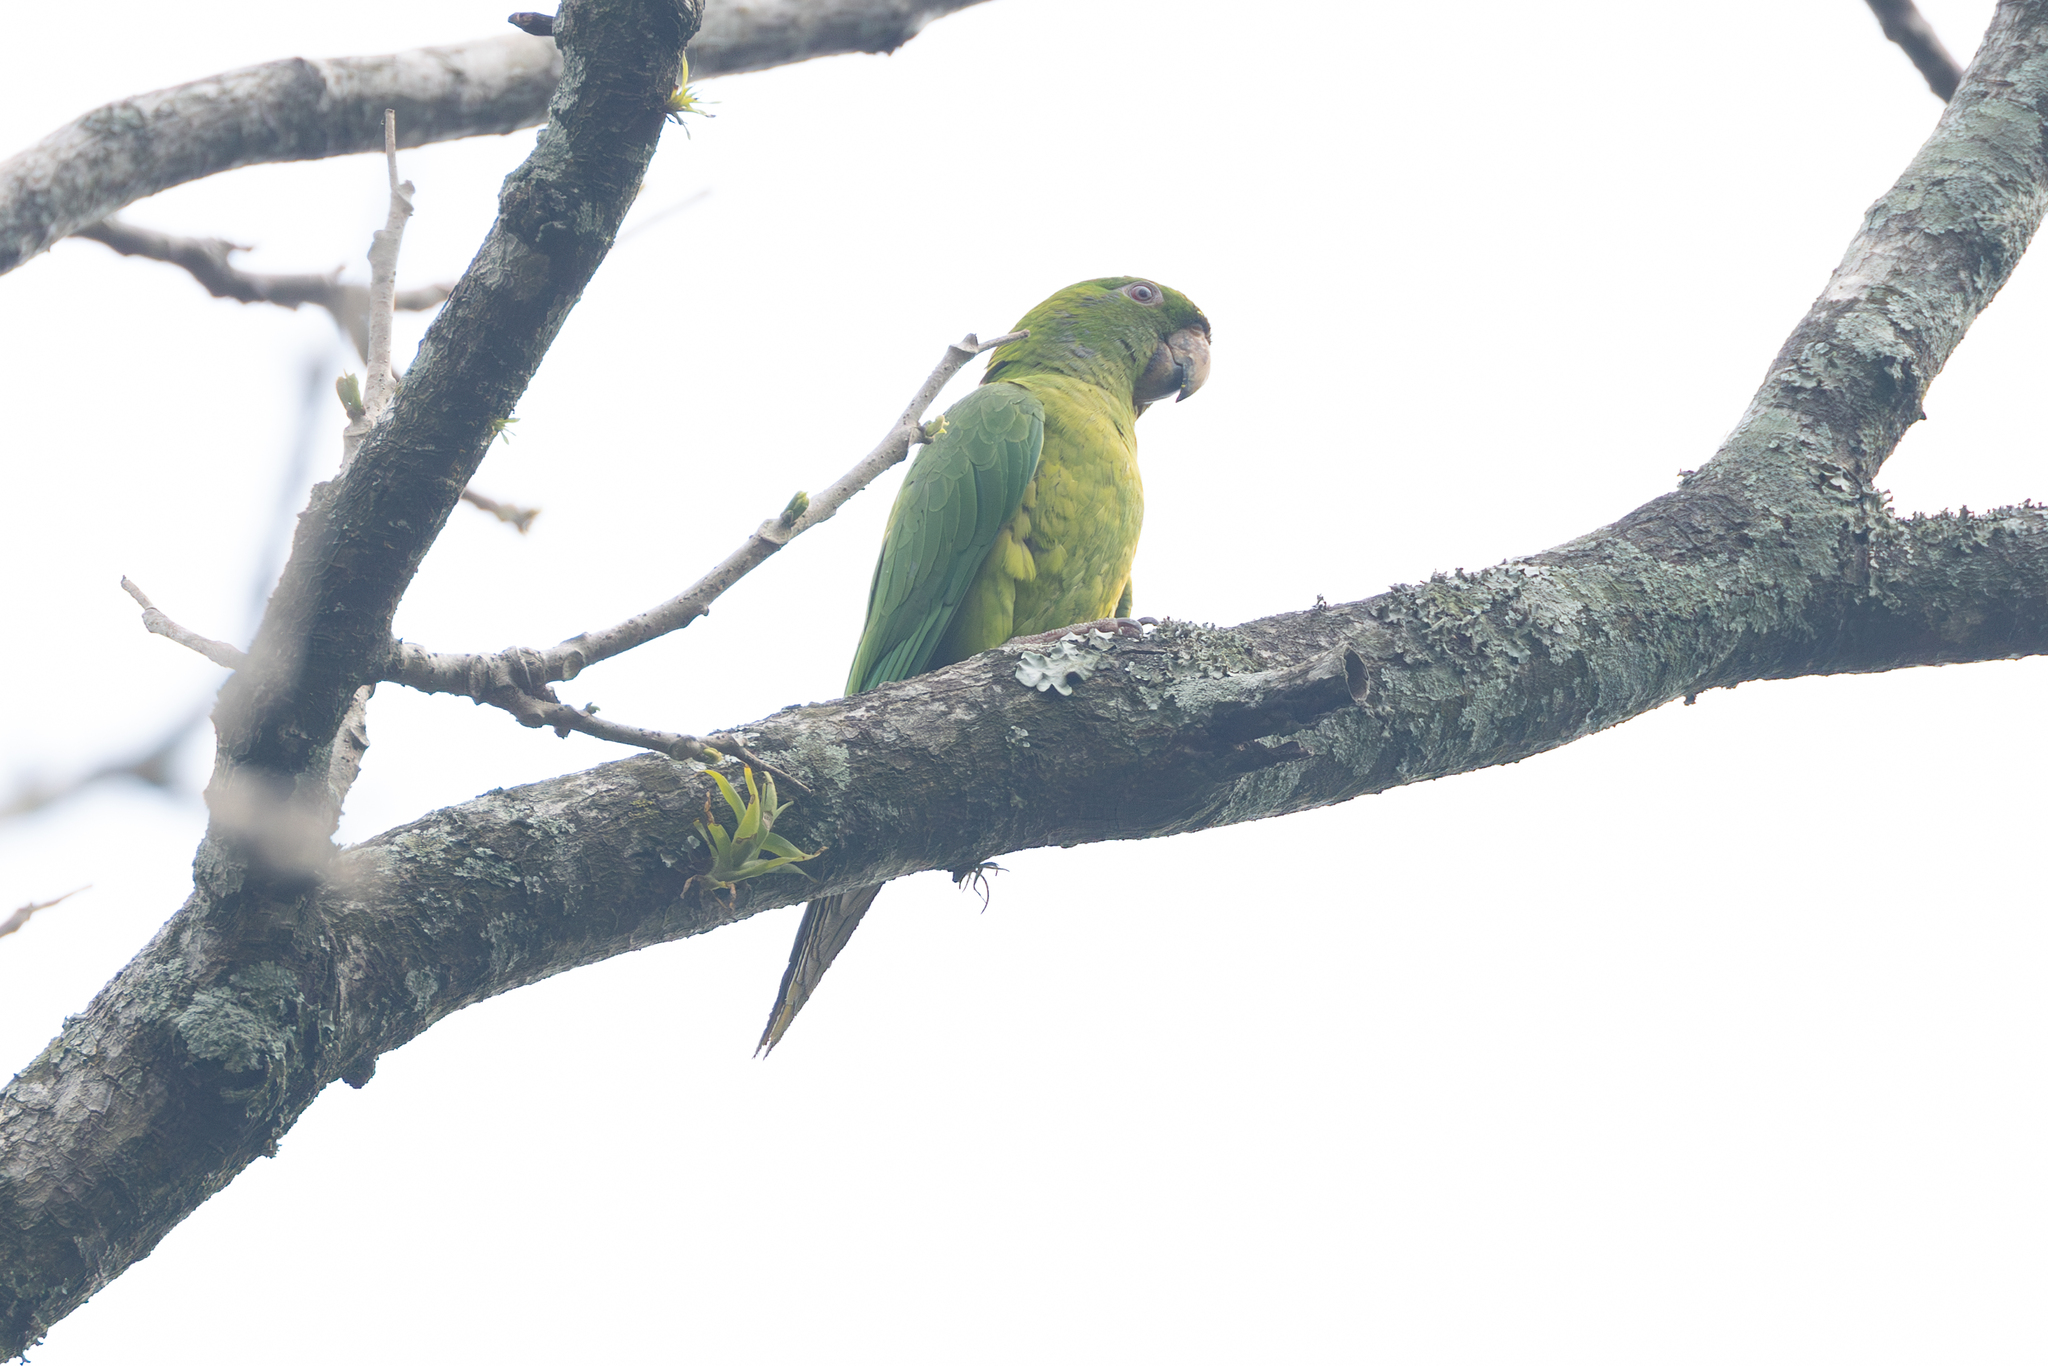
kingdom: Animalia
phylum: Chordata
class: Aves
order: Psittaciformes
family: Psittacidae
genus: Aratinga
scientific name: Aratinga strenua
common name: Pacific parakeet
